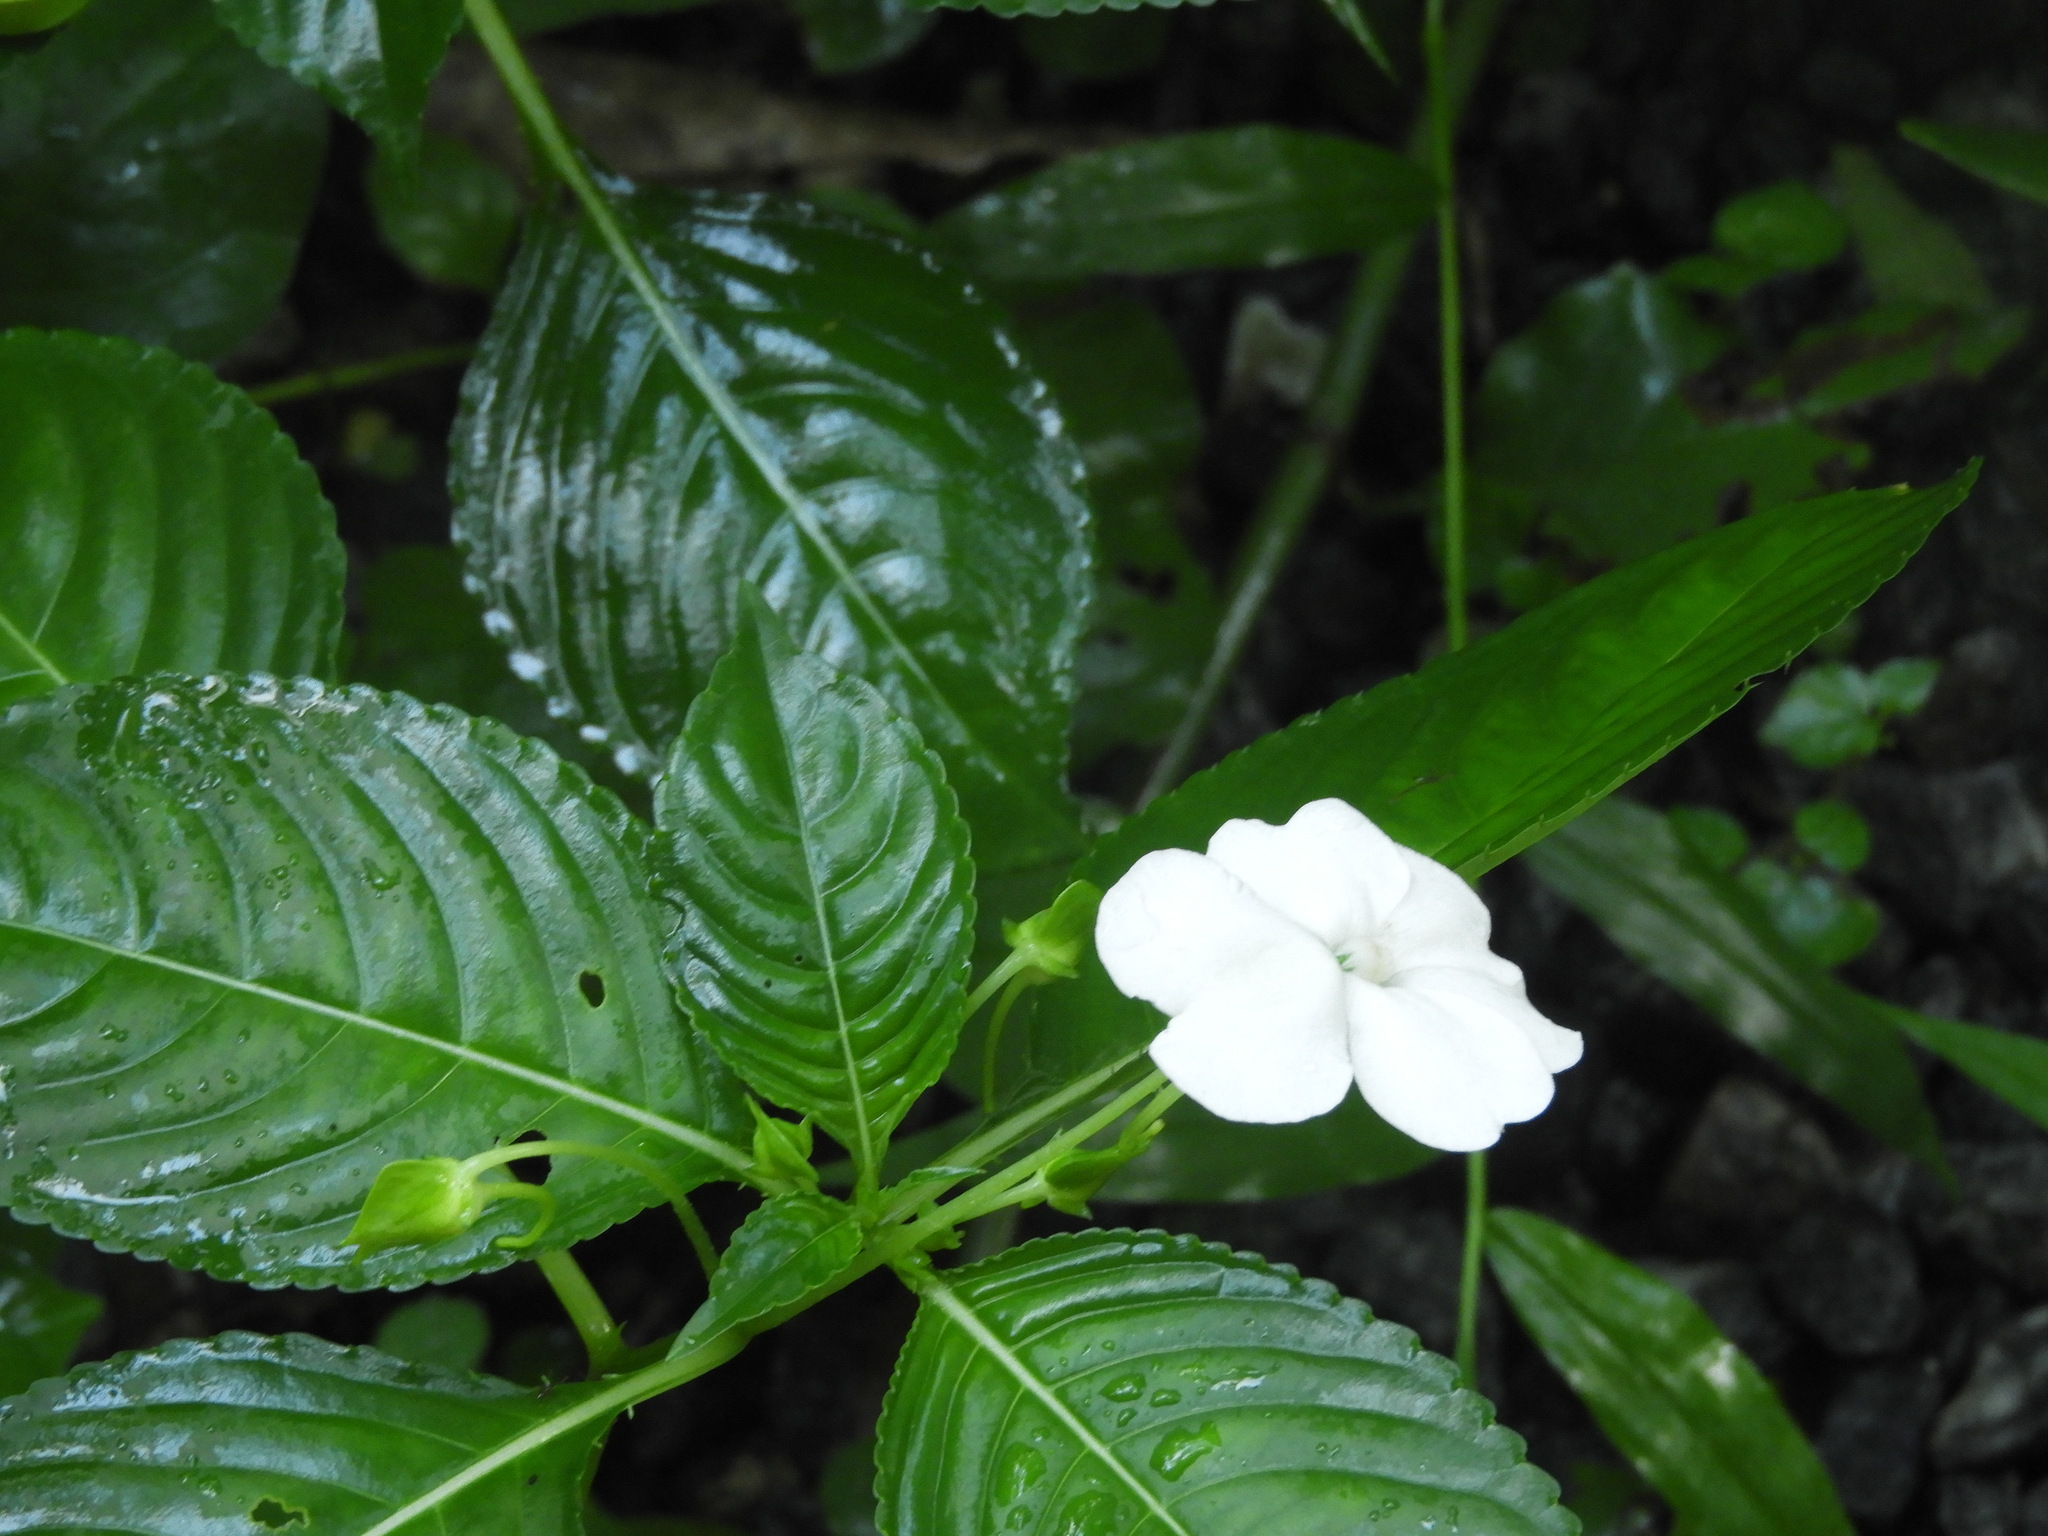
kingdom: Plantae
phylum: Tracheophyta
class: Magnoliopsida
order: Ericales
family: Balsaminaceae
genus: Impatiens
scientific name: Impatiens flaccida
